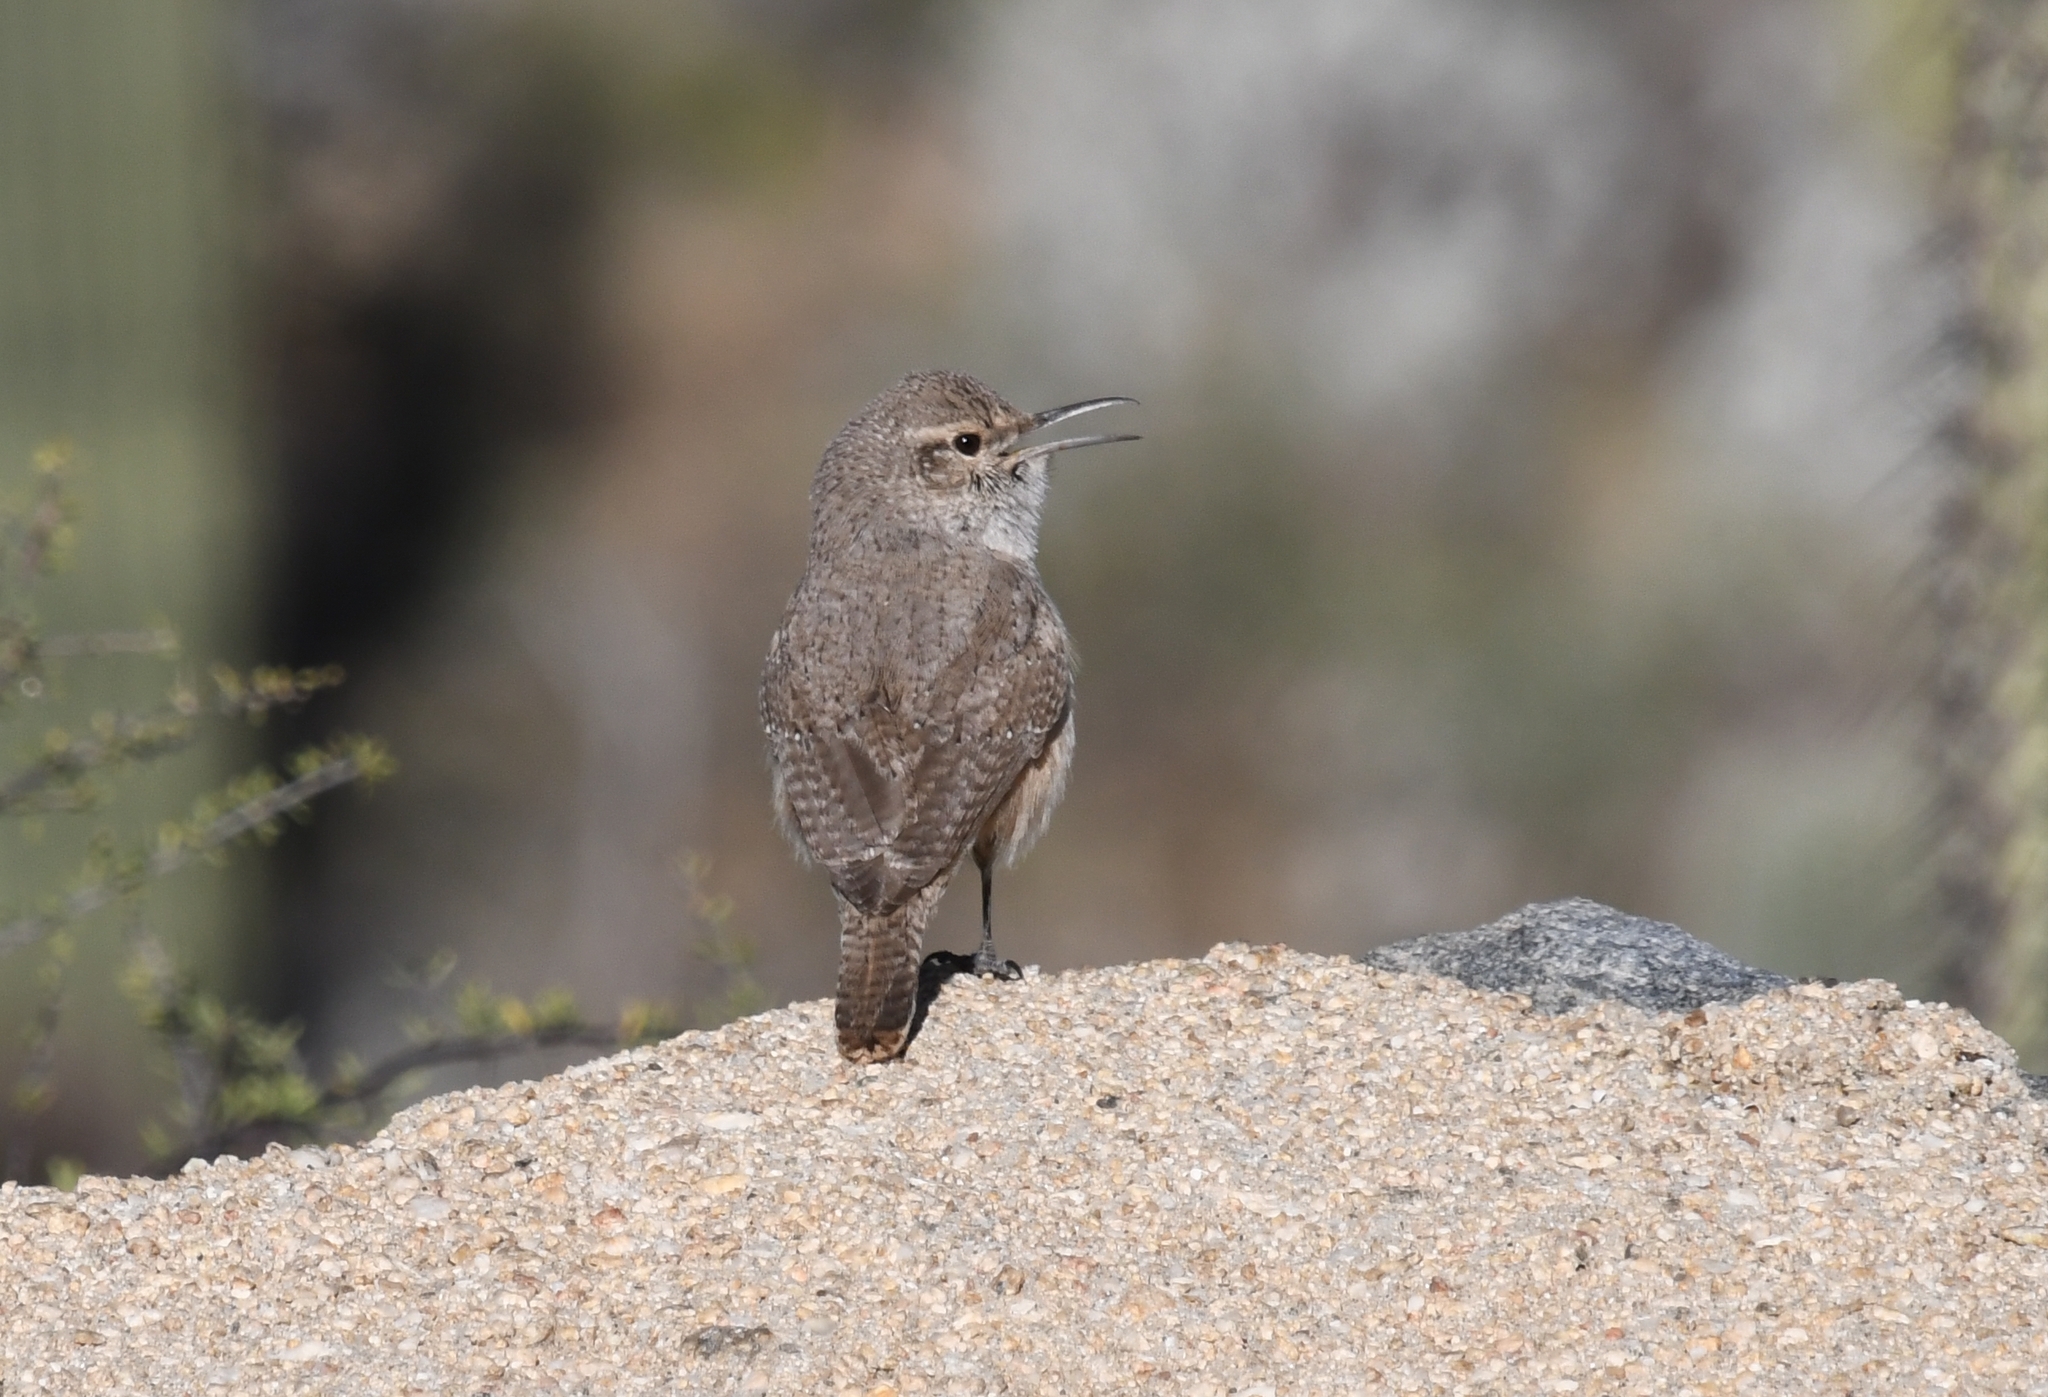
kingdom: Animalia
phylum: Chordata
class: Aves
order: Passeriformes
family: Troglodytidae
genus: Salpinctes
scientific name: Salpinctes obsoletus
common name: Rock wren
